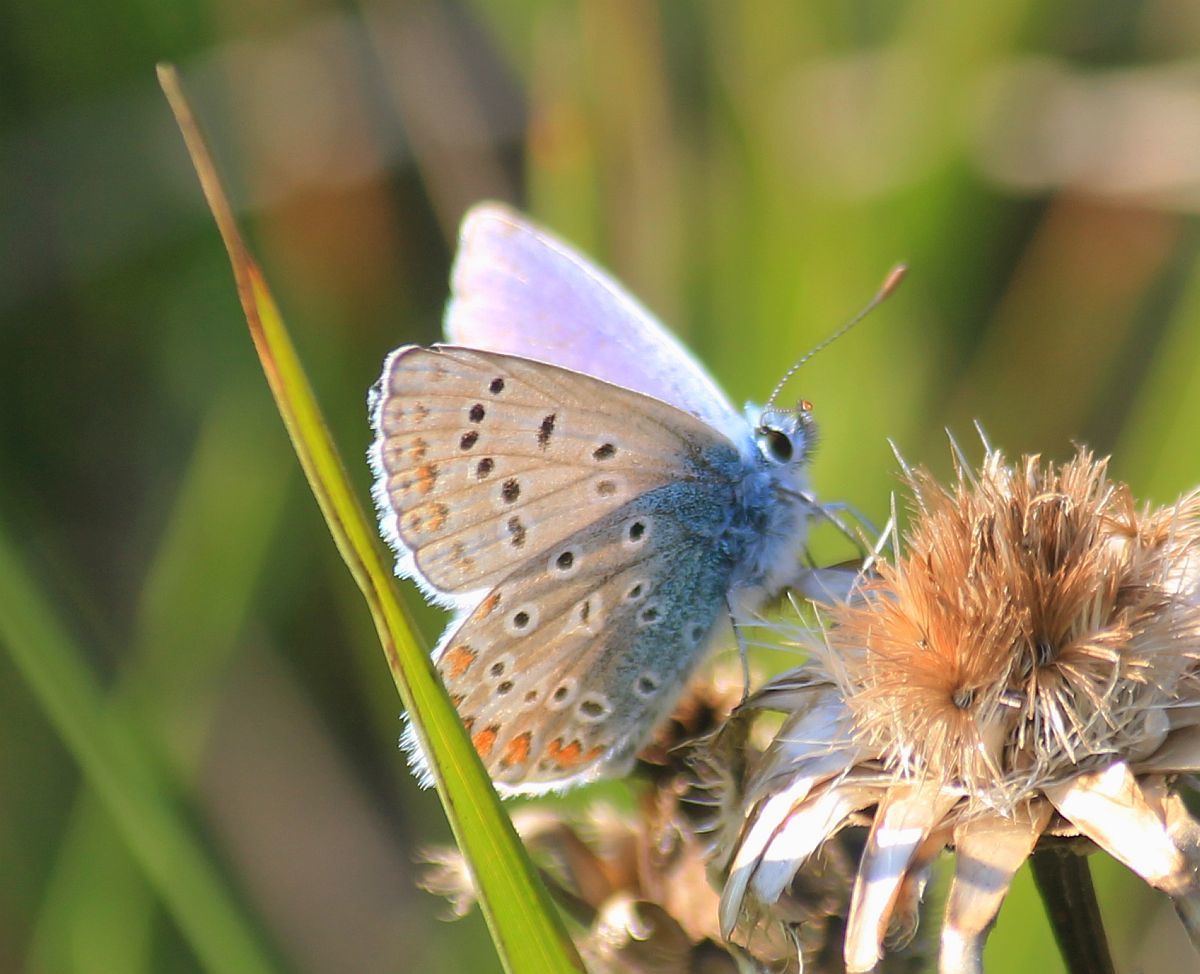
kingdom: Animalia
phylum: Arthropoda
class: Insecta
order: Lepidoptera
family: Lycaenidae
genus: Polyommatus
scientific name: Polyommatus icarus
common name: Common blue
